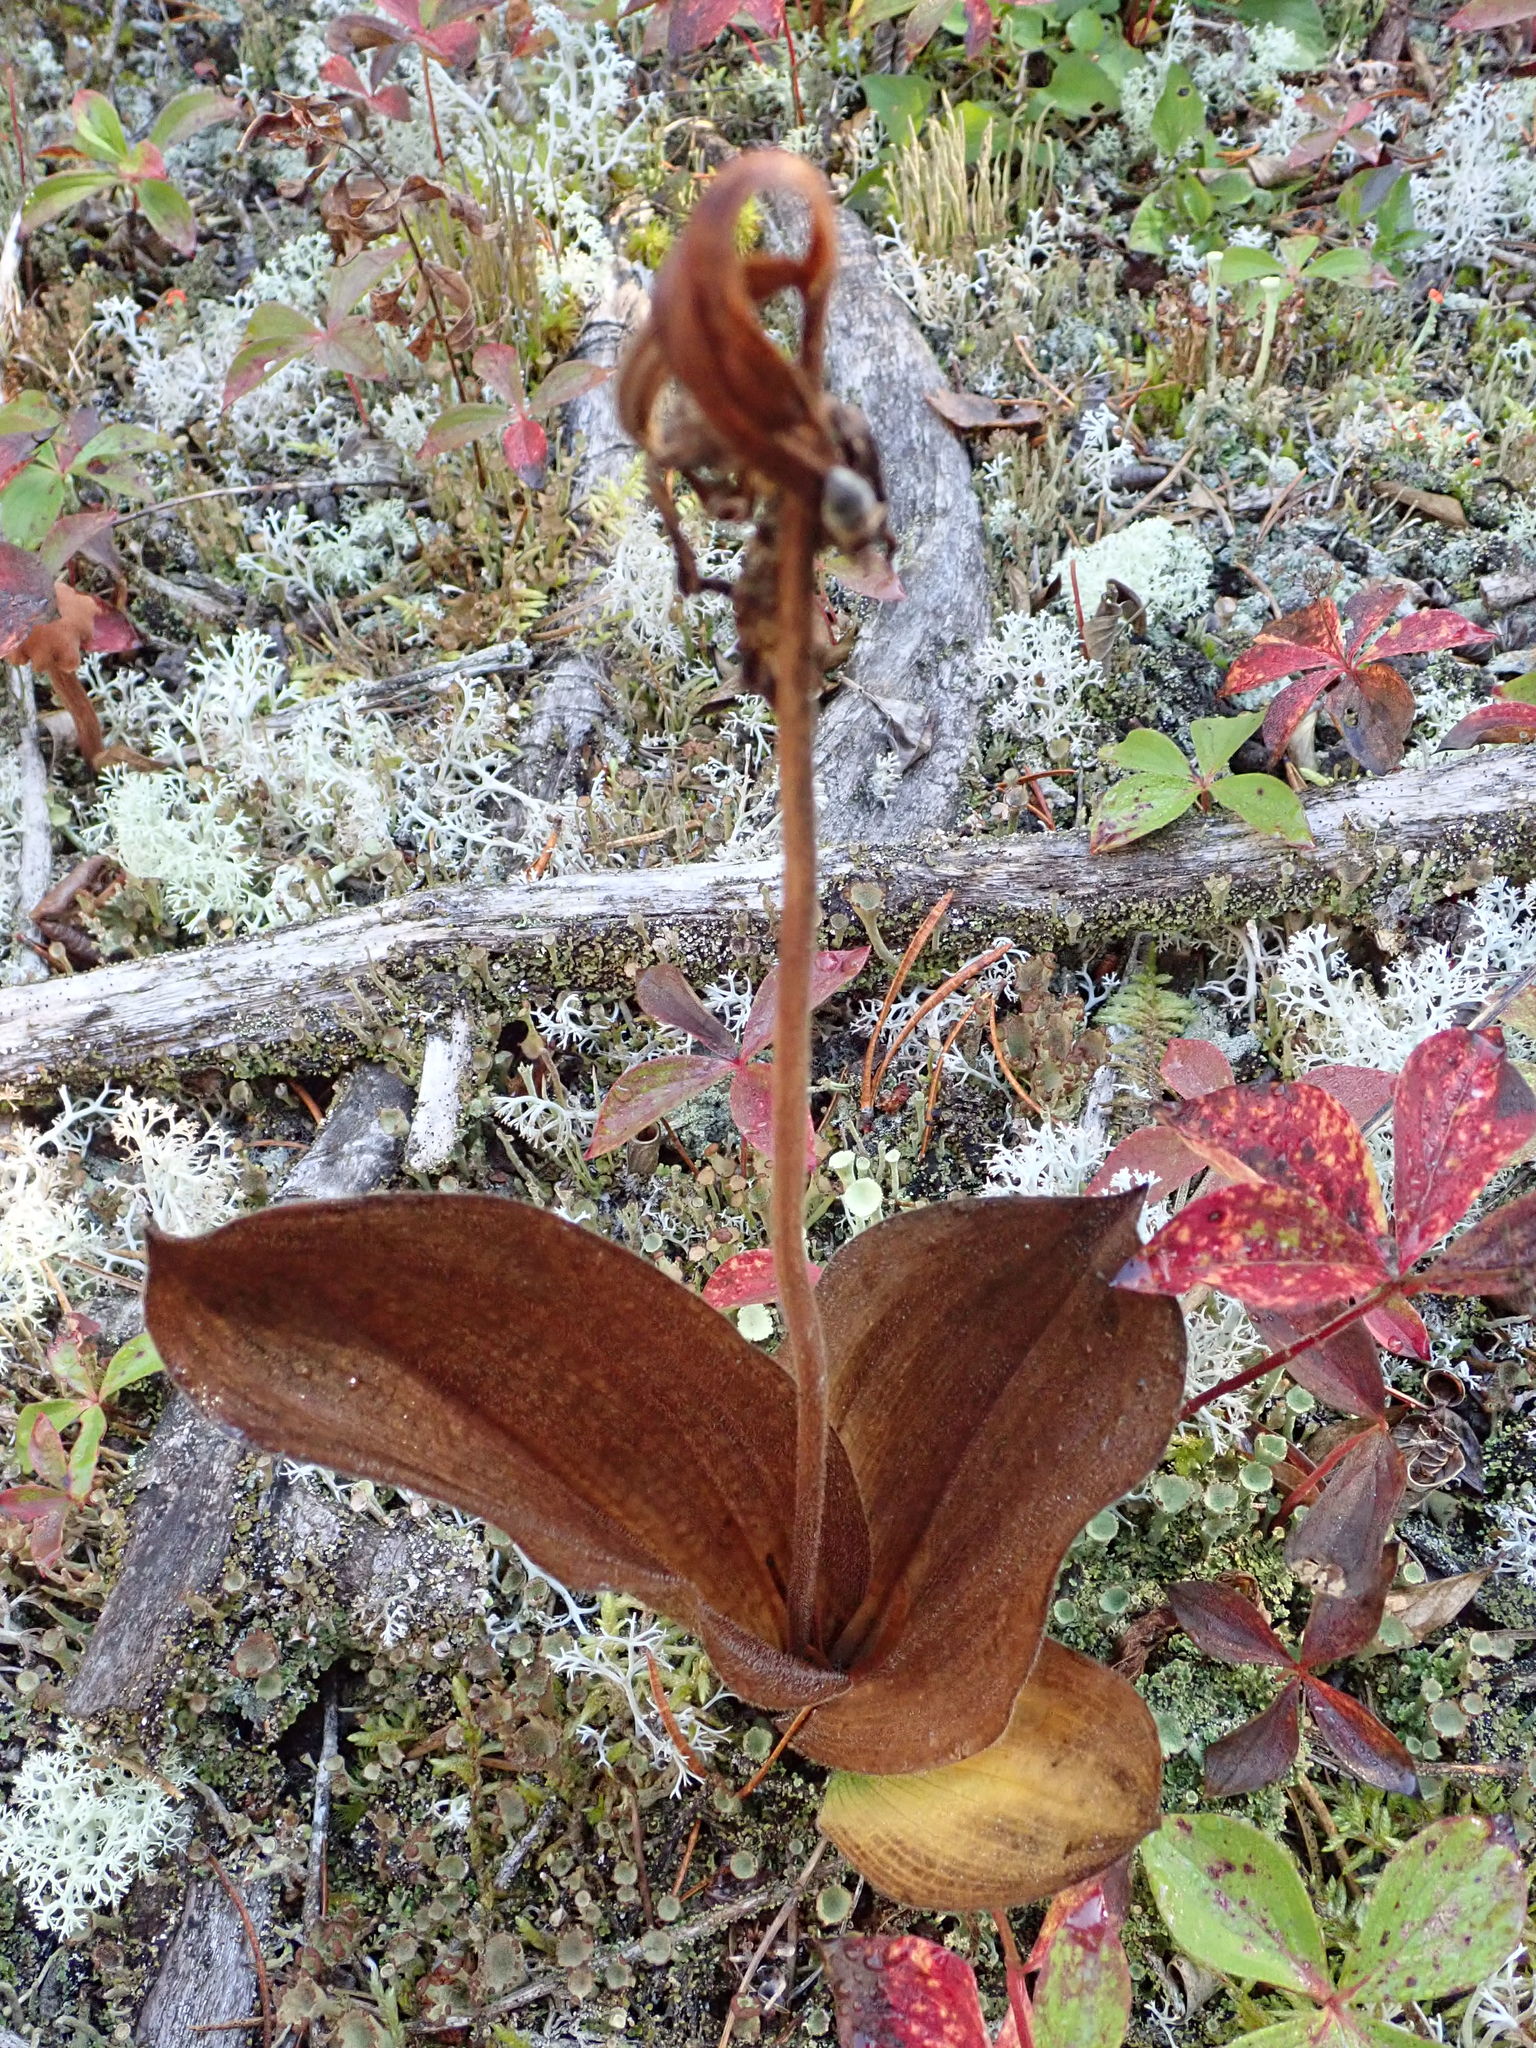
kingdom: Plantae
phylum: Tracheophyta
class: Liliopsida
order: Asparagales
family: Orchidaceae
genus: Cypripedium
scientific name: Cypripedium acaule
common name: Pink lady's-slipper
